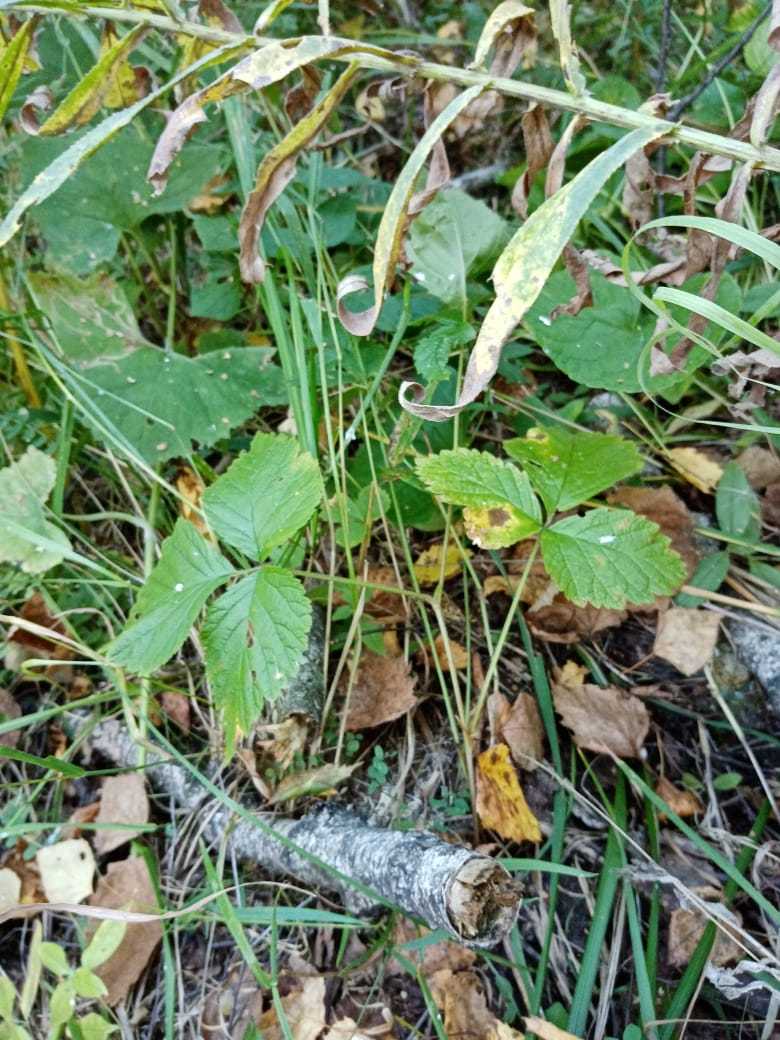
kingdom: Plantae
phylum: Tracheophyta
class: Magnoliopsida
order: Rosales
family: Rosaceae
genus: Rubus
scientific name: Rubus saxatilis
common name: Stone bramble
